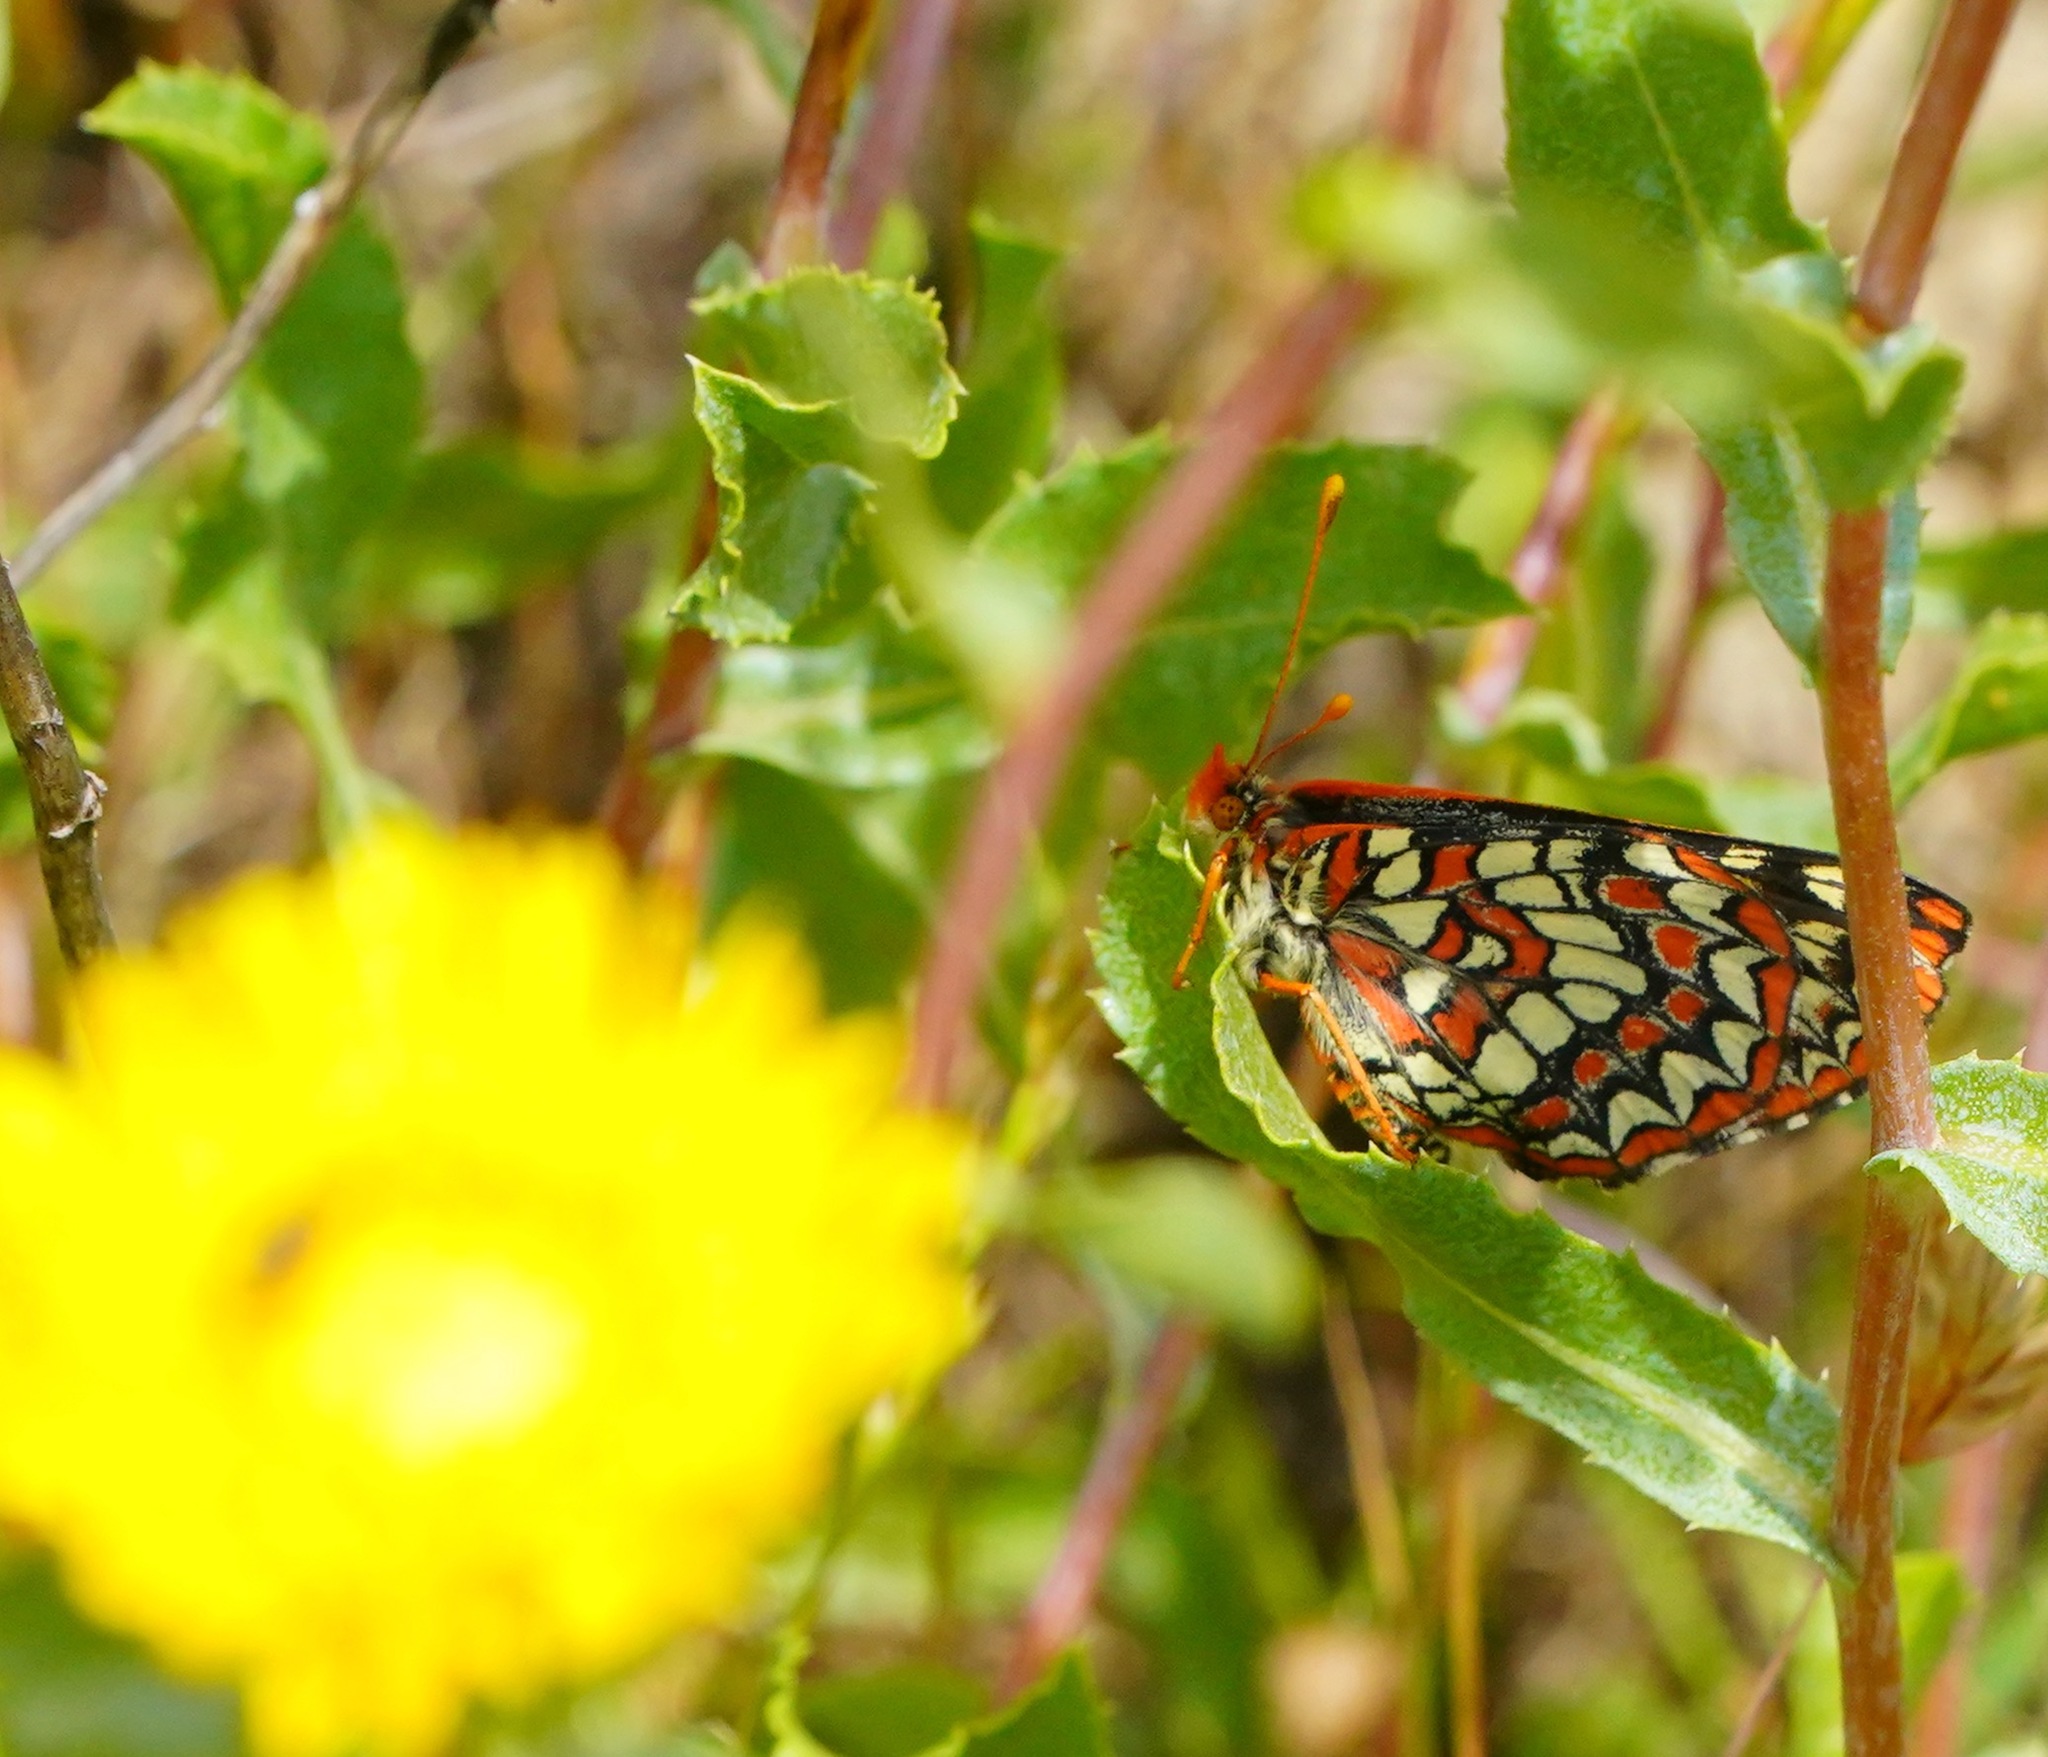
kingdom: Animalia
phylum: Arthropoda
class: Insecta
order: Lepidoptera
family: Nymphalidae
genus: Occidryas
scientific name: Occidryas chalcedona
